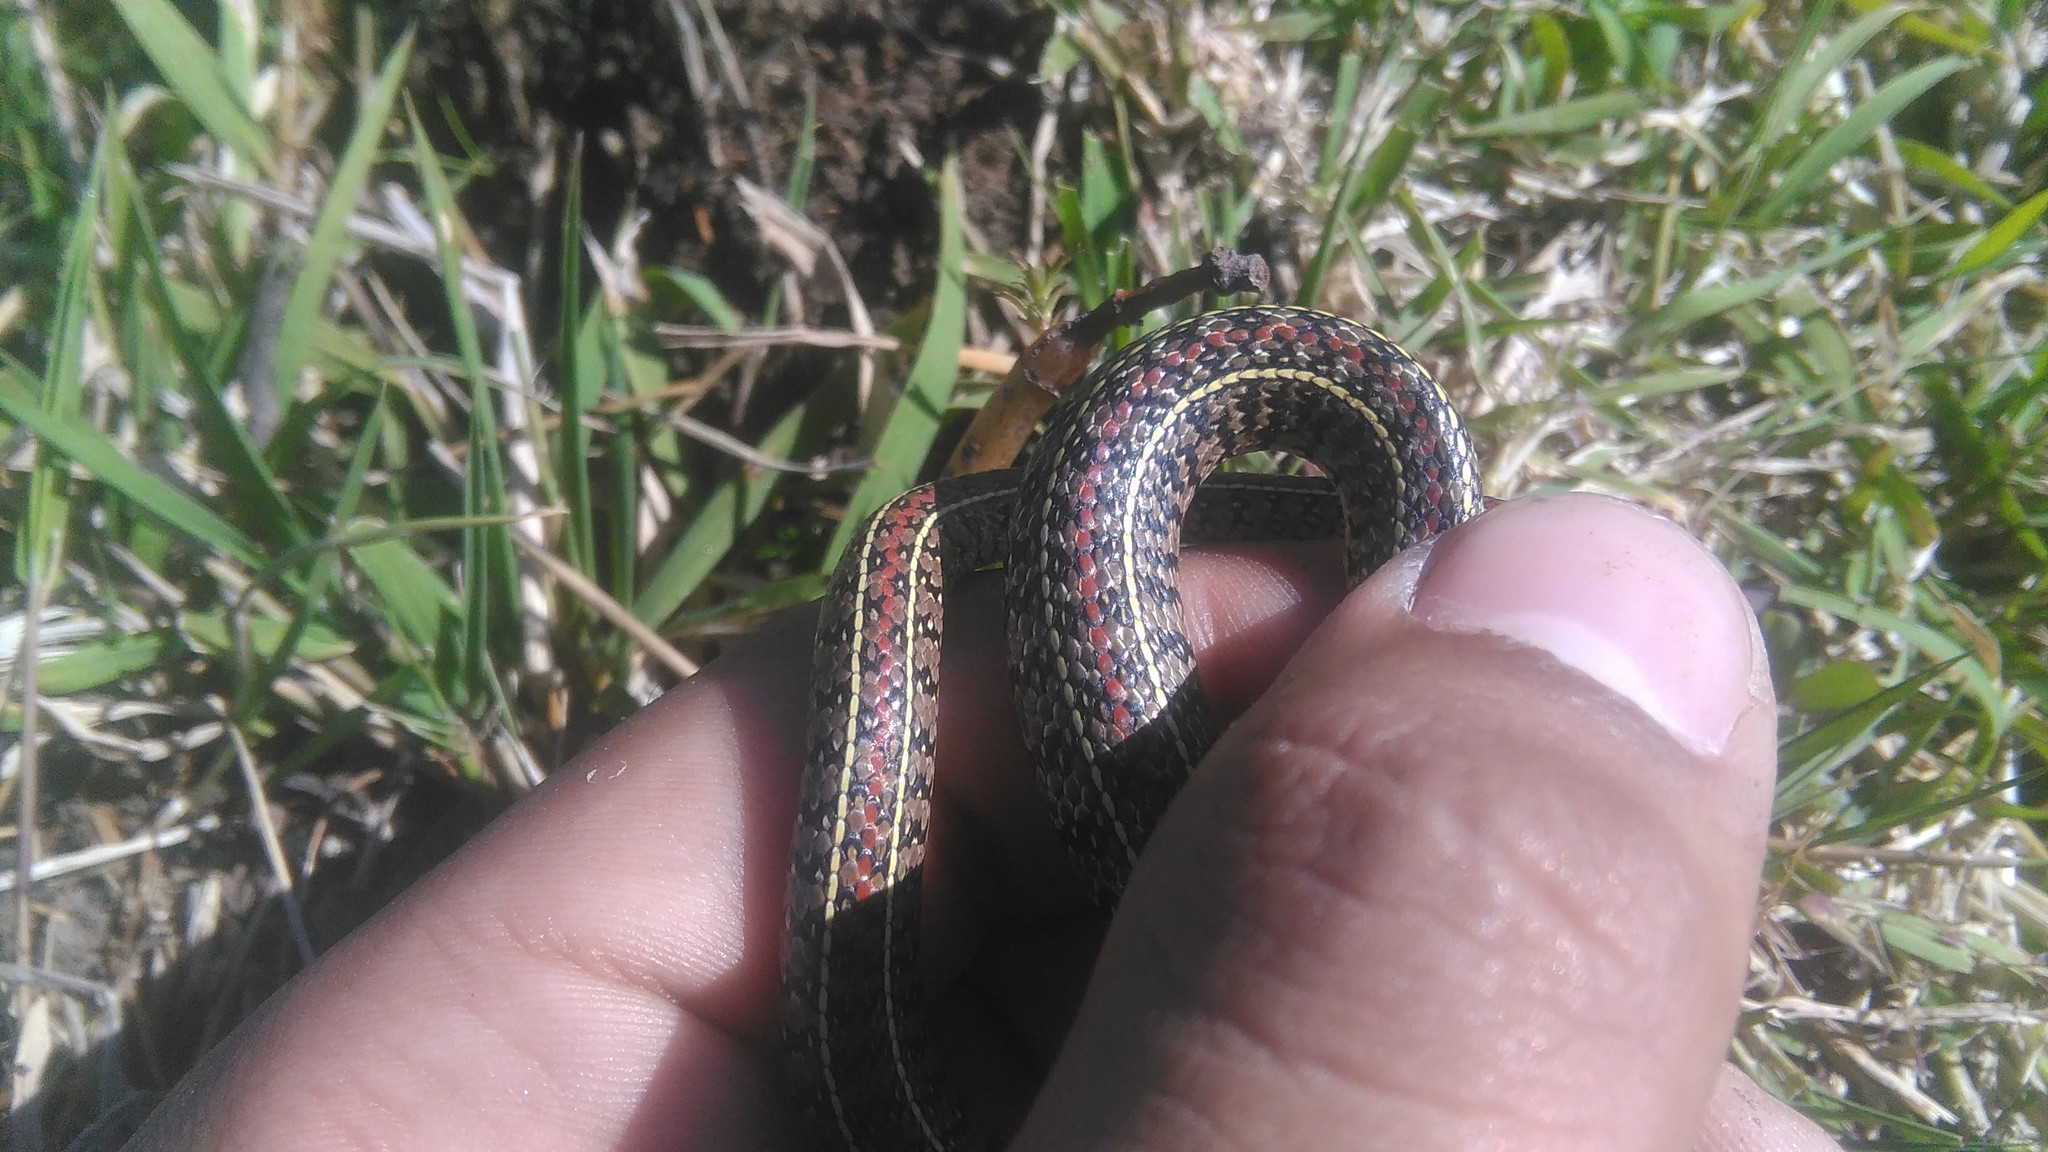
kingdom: Animalia
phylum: Chordata
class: Squamata
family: Colubridae
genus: Lygophis
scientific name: Lygophis anomalus
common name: English common name not available
